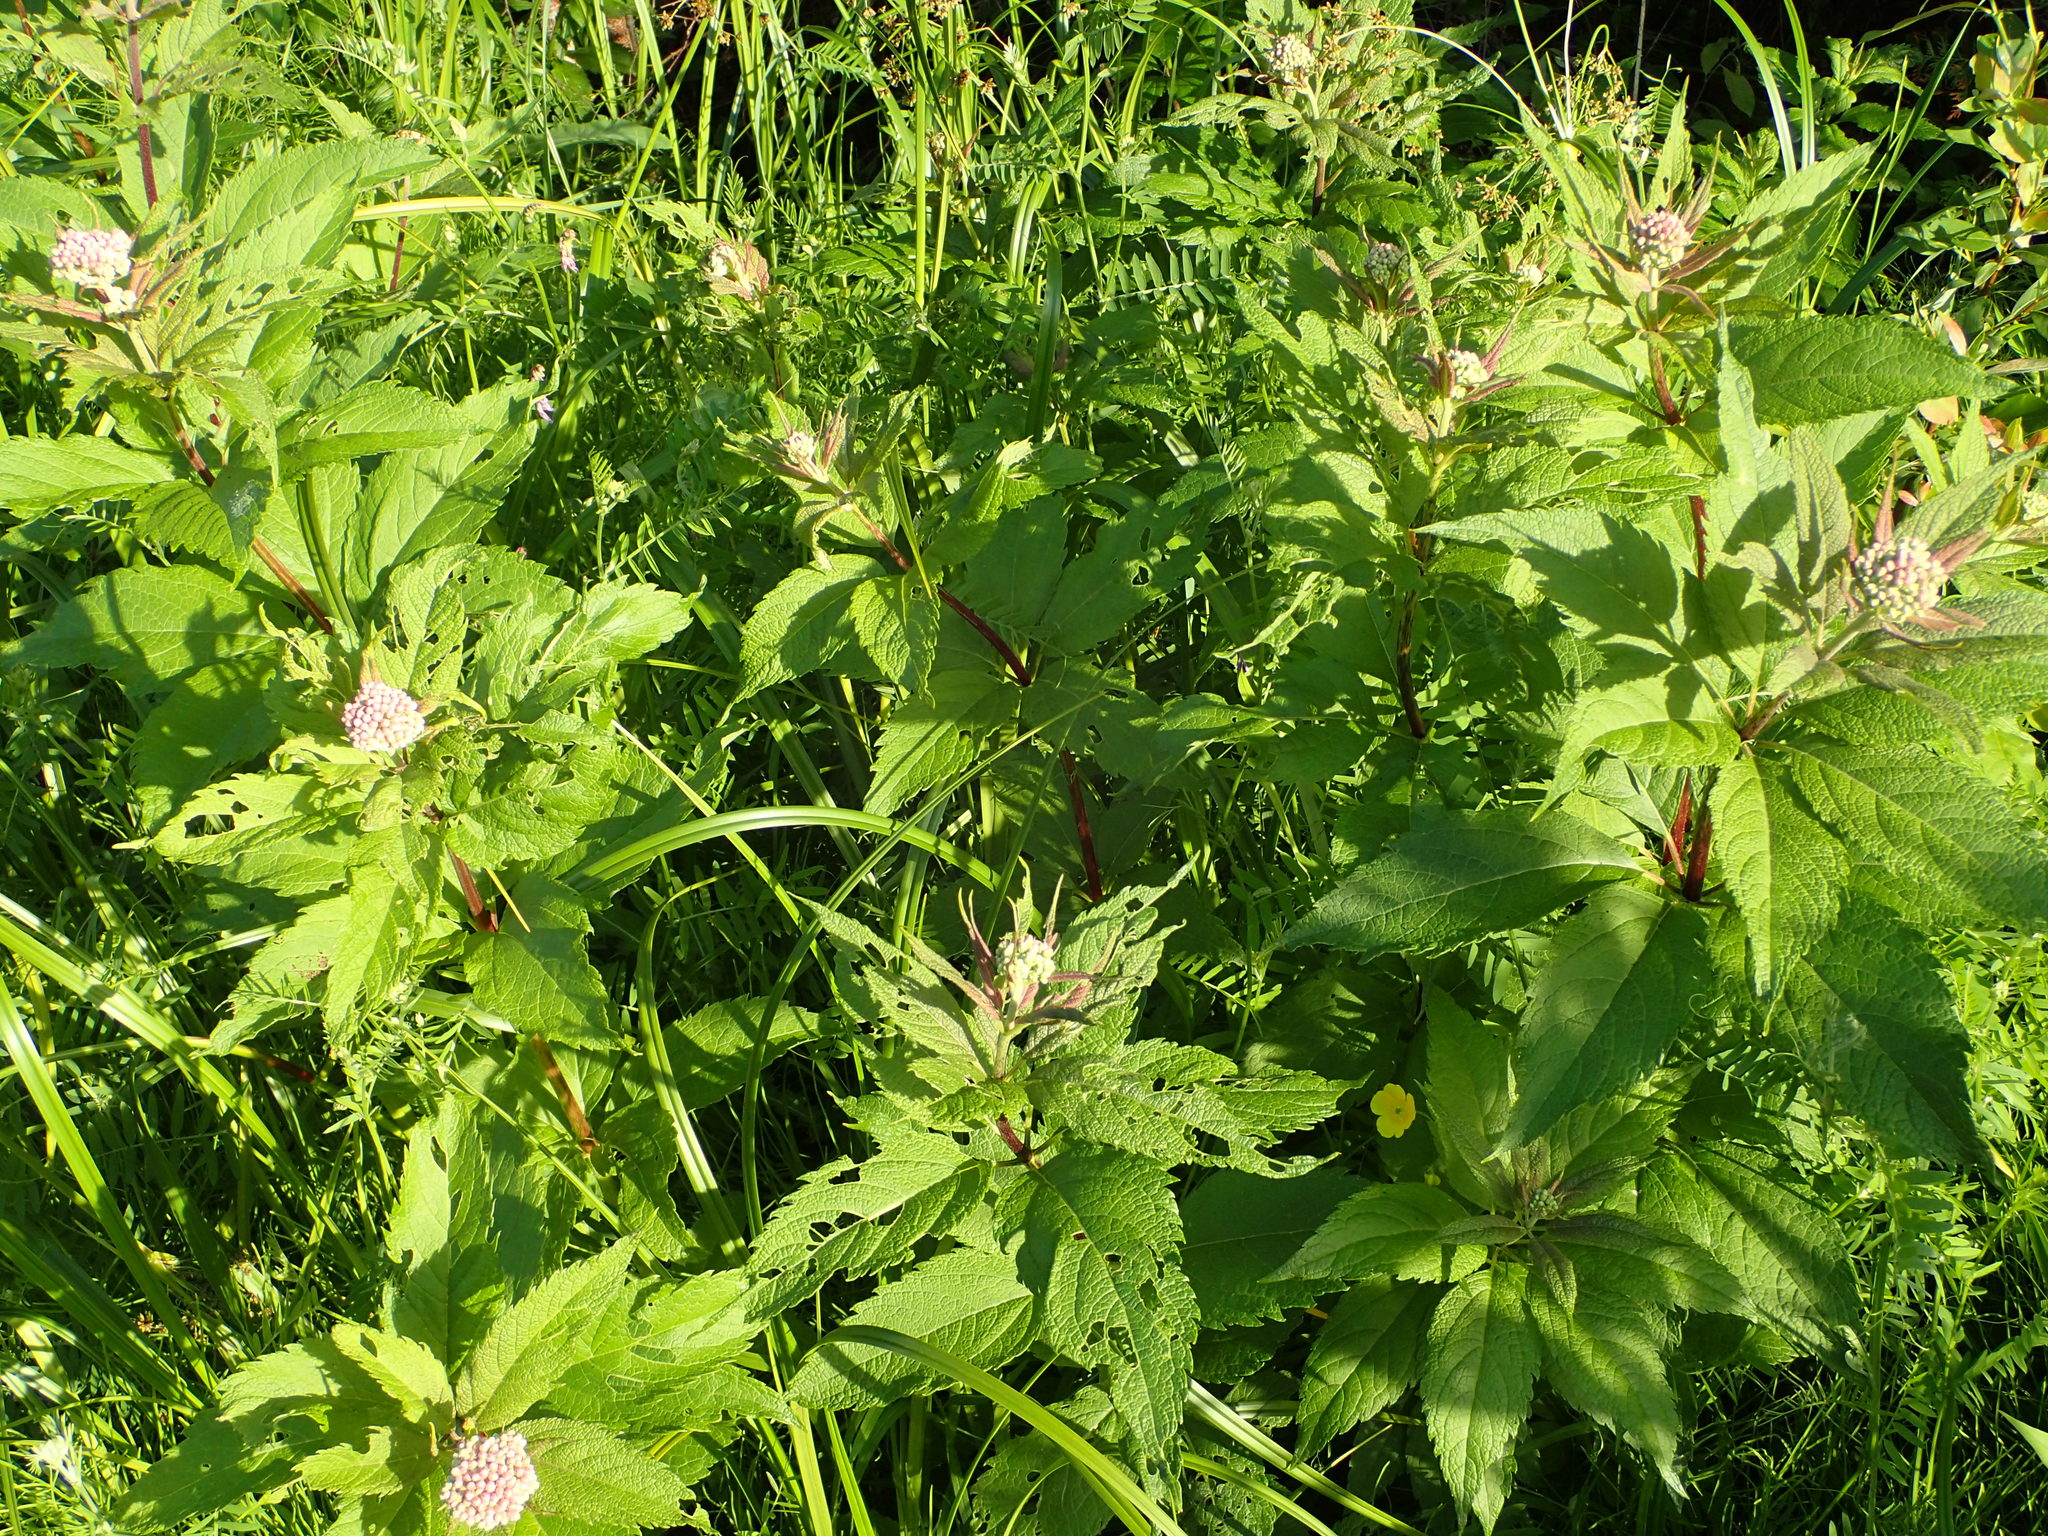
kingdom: Plantae
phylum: Tracheophyta
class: Magnoliopsida
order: Asterales
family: Asteraceae
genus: Eutrochium
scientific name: Eutrochium maculatum
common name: Spotted joe pye weed
